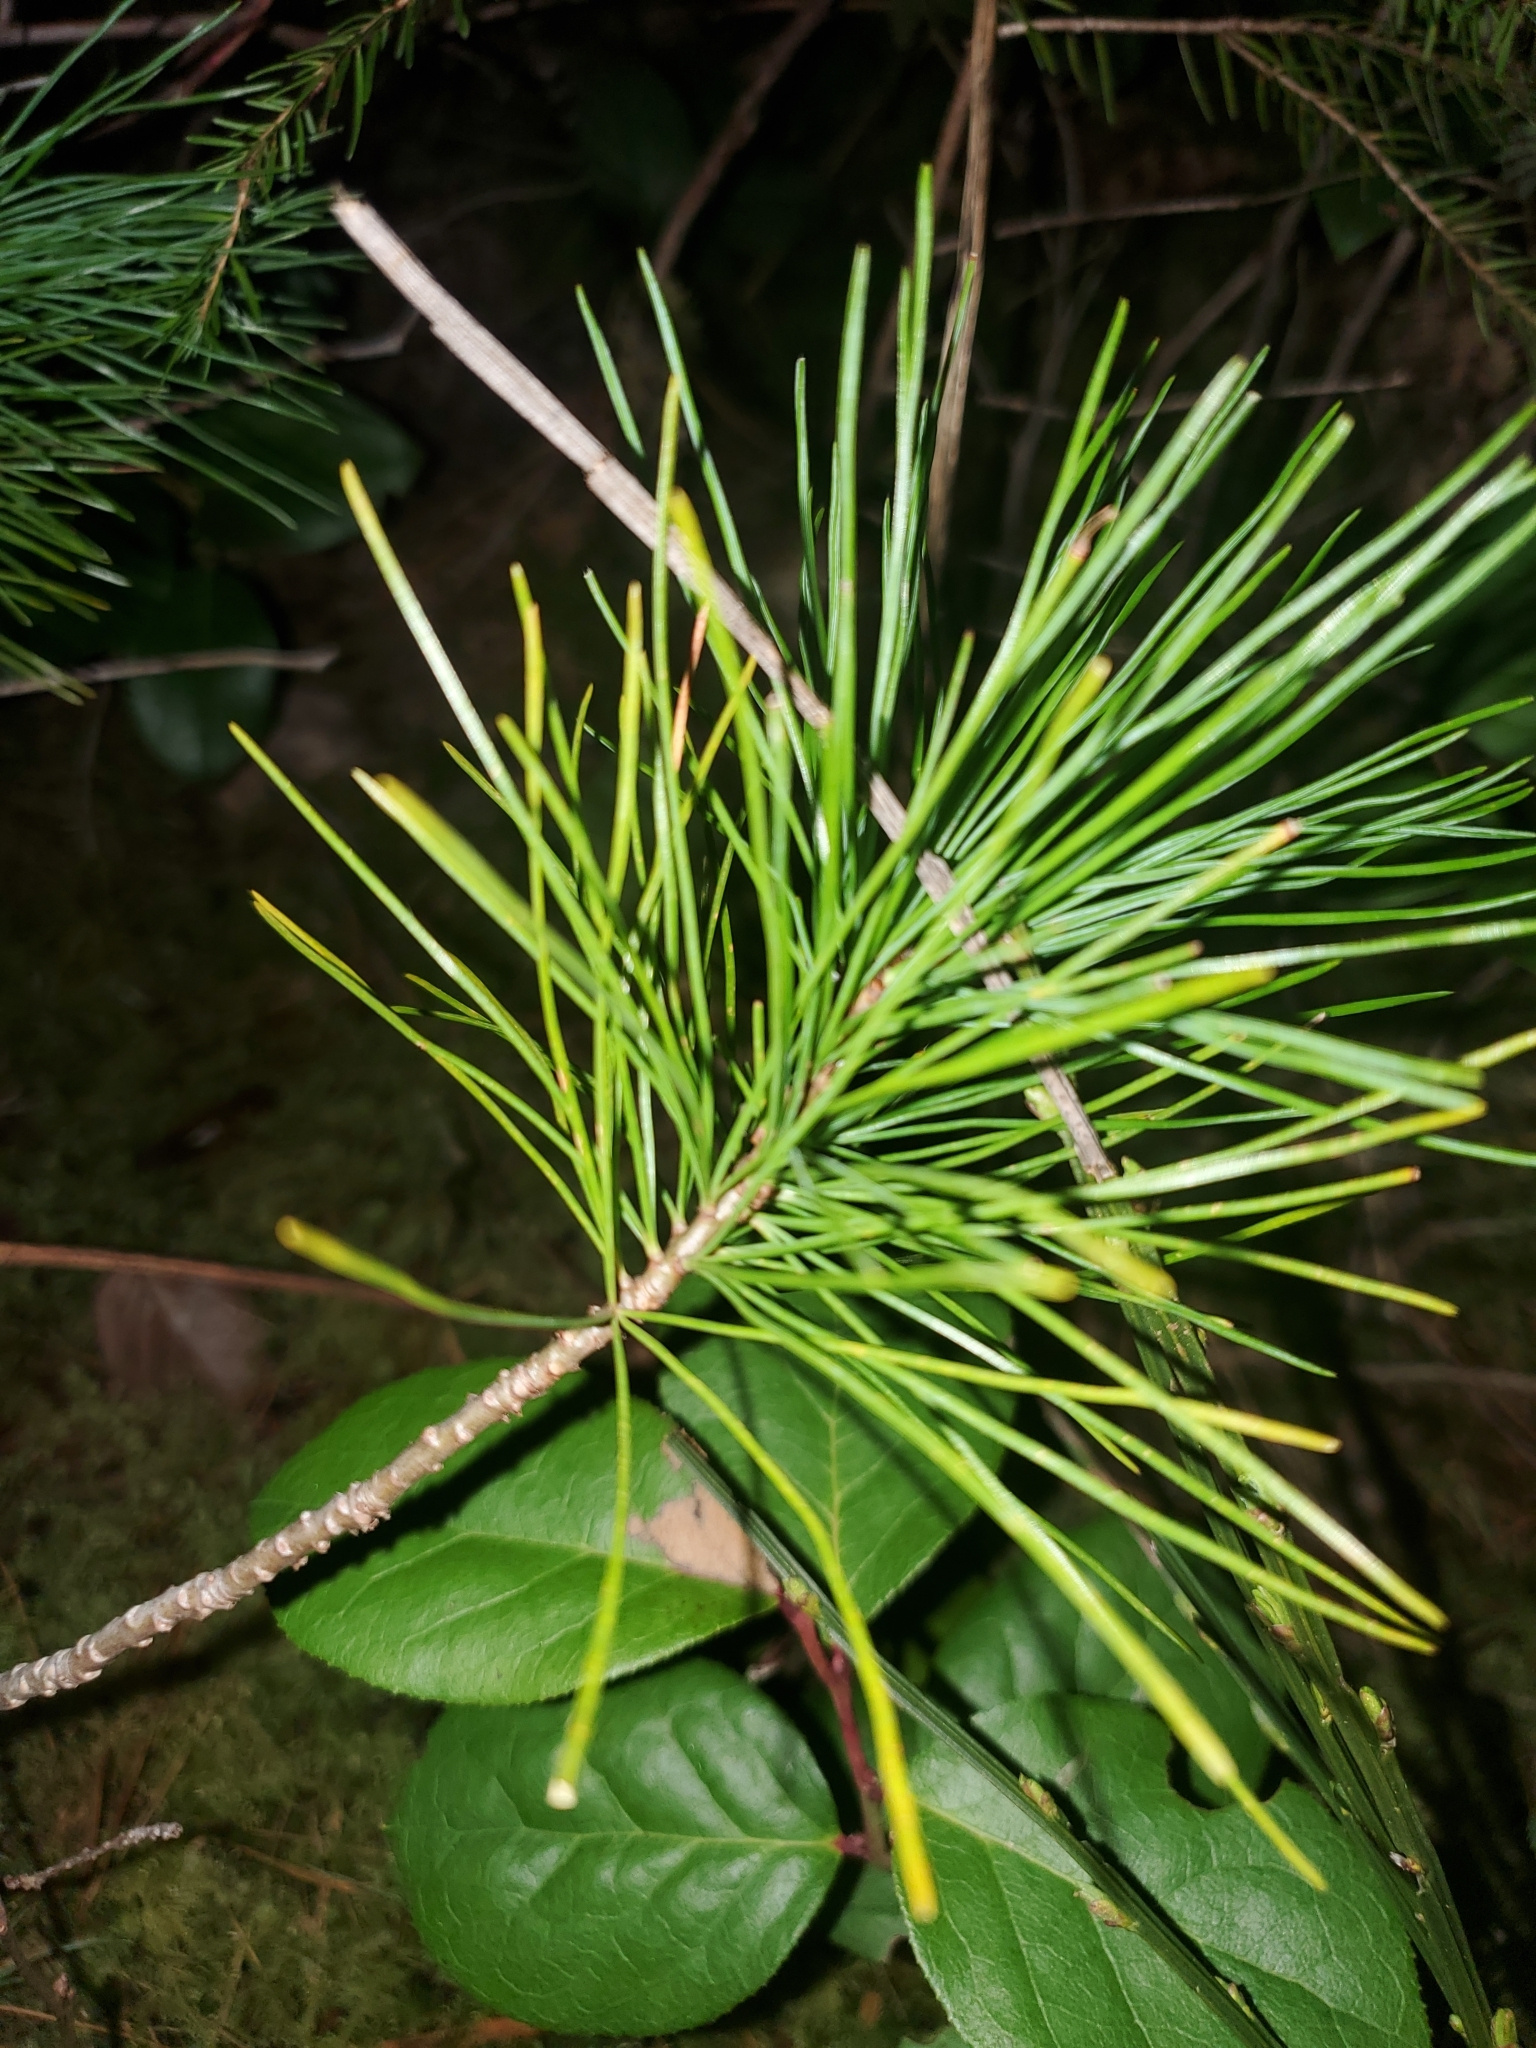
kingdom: Plantae
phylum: Tracheophyta
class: Pinopsida
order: Pinales
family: Pinaceae
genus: Pinus
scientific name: Pinus monticola
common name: Western white pine
